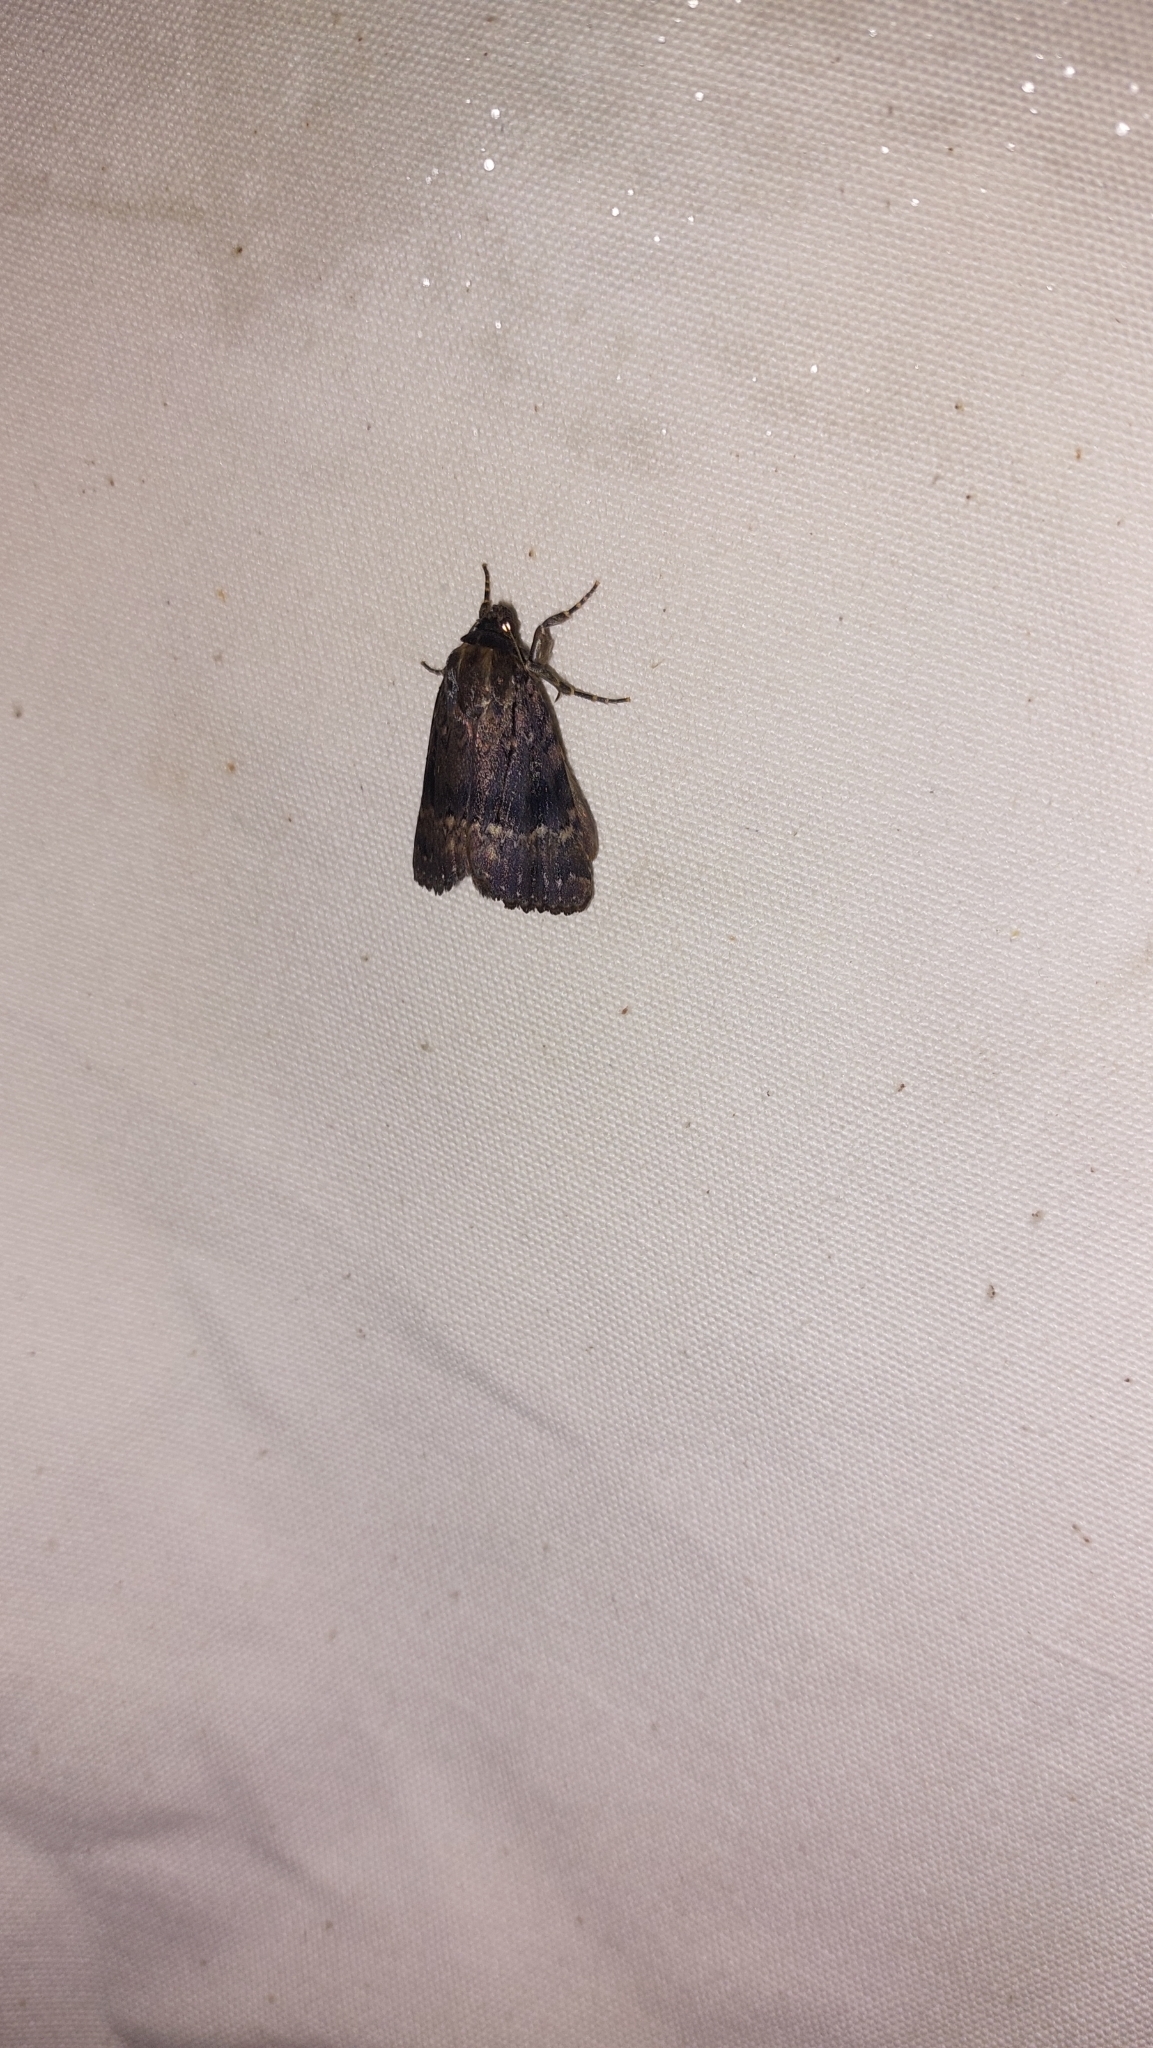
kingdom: Animalia
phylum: Arthropoda
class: Insecta
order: Lepidoptera
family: Noctuidae
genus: Amphipyra
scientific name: Amphipyra pyramidea
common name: Copper underwing
